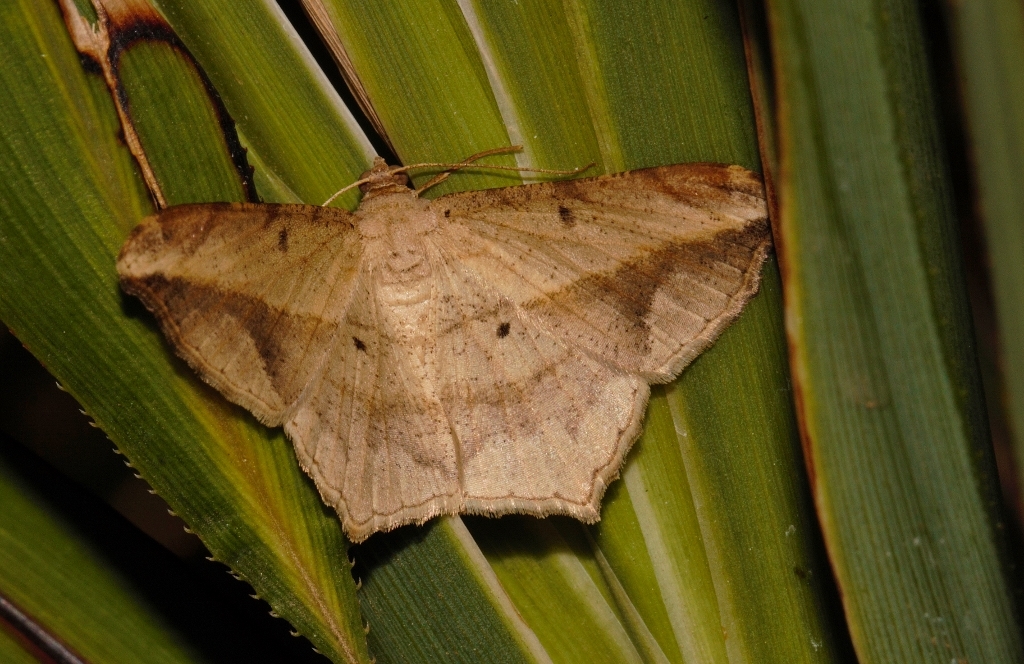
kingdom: Animalia
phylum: Arthropoda
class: Insecta
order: Lepidoptera
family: Geometridae
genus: Chiasmia
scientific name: Chiasmia simplicilinea
